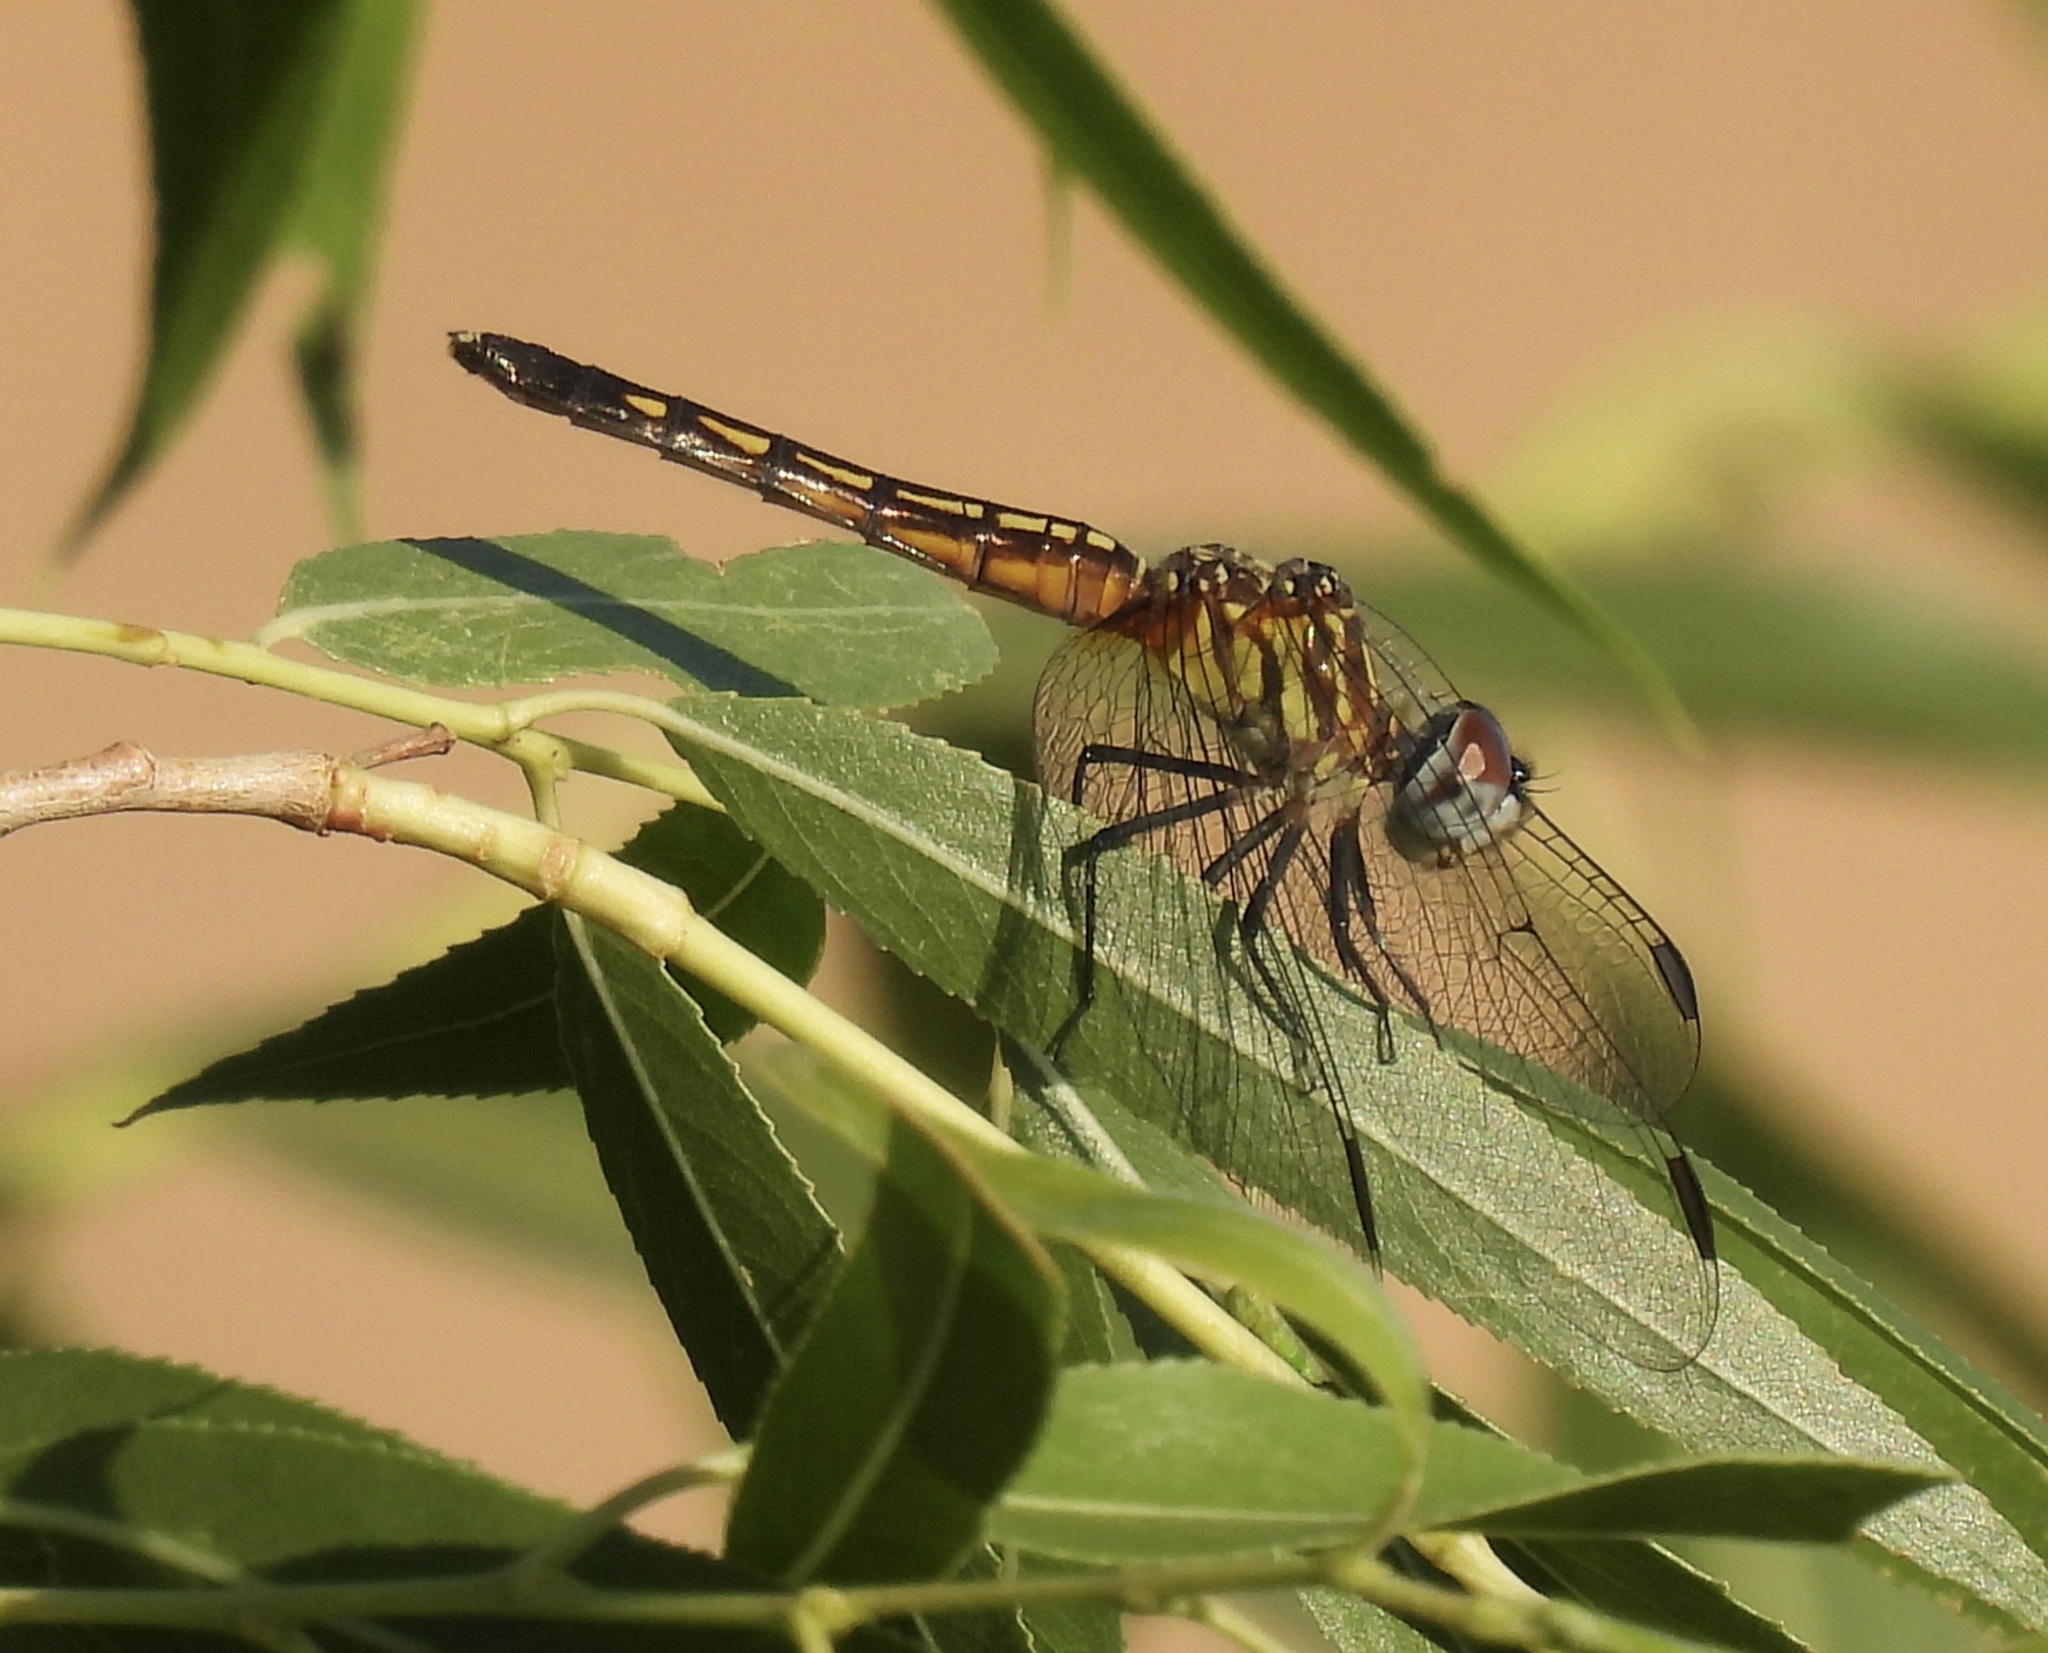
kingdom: Animalia
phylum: Arthropoda
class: Insecta
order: Odonata
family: Libellulidae
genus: Pachydiplax
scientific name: Pachydiplax longipennis
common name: Blue dasher
